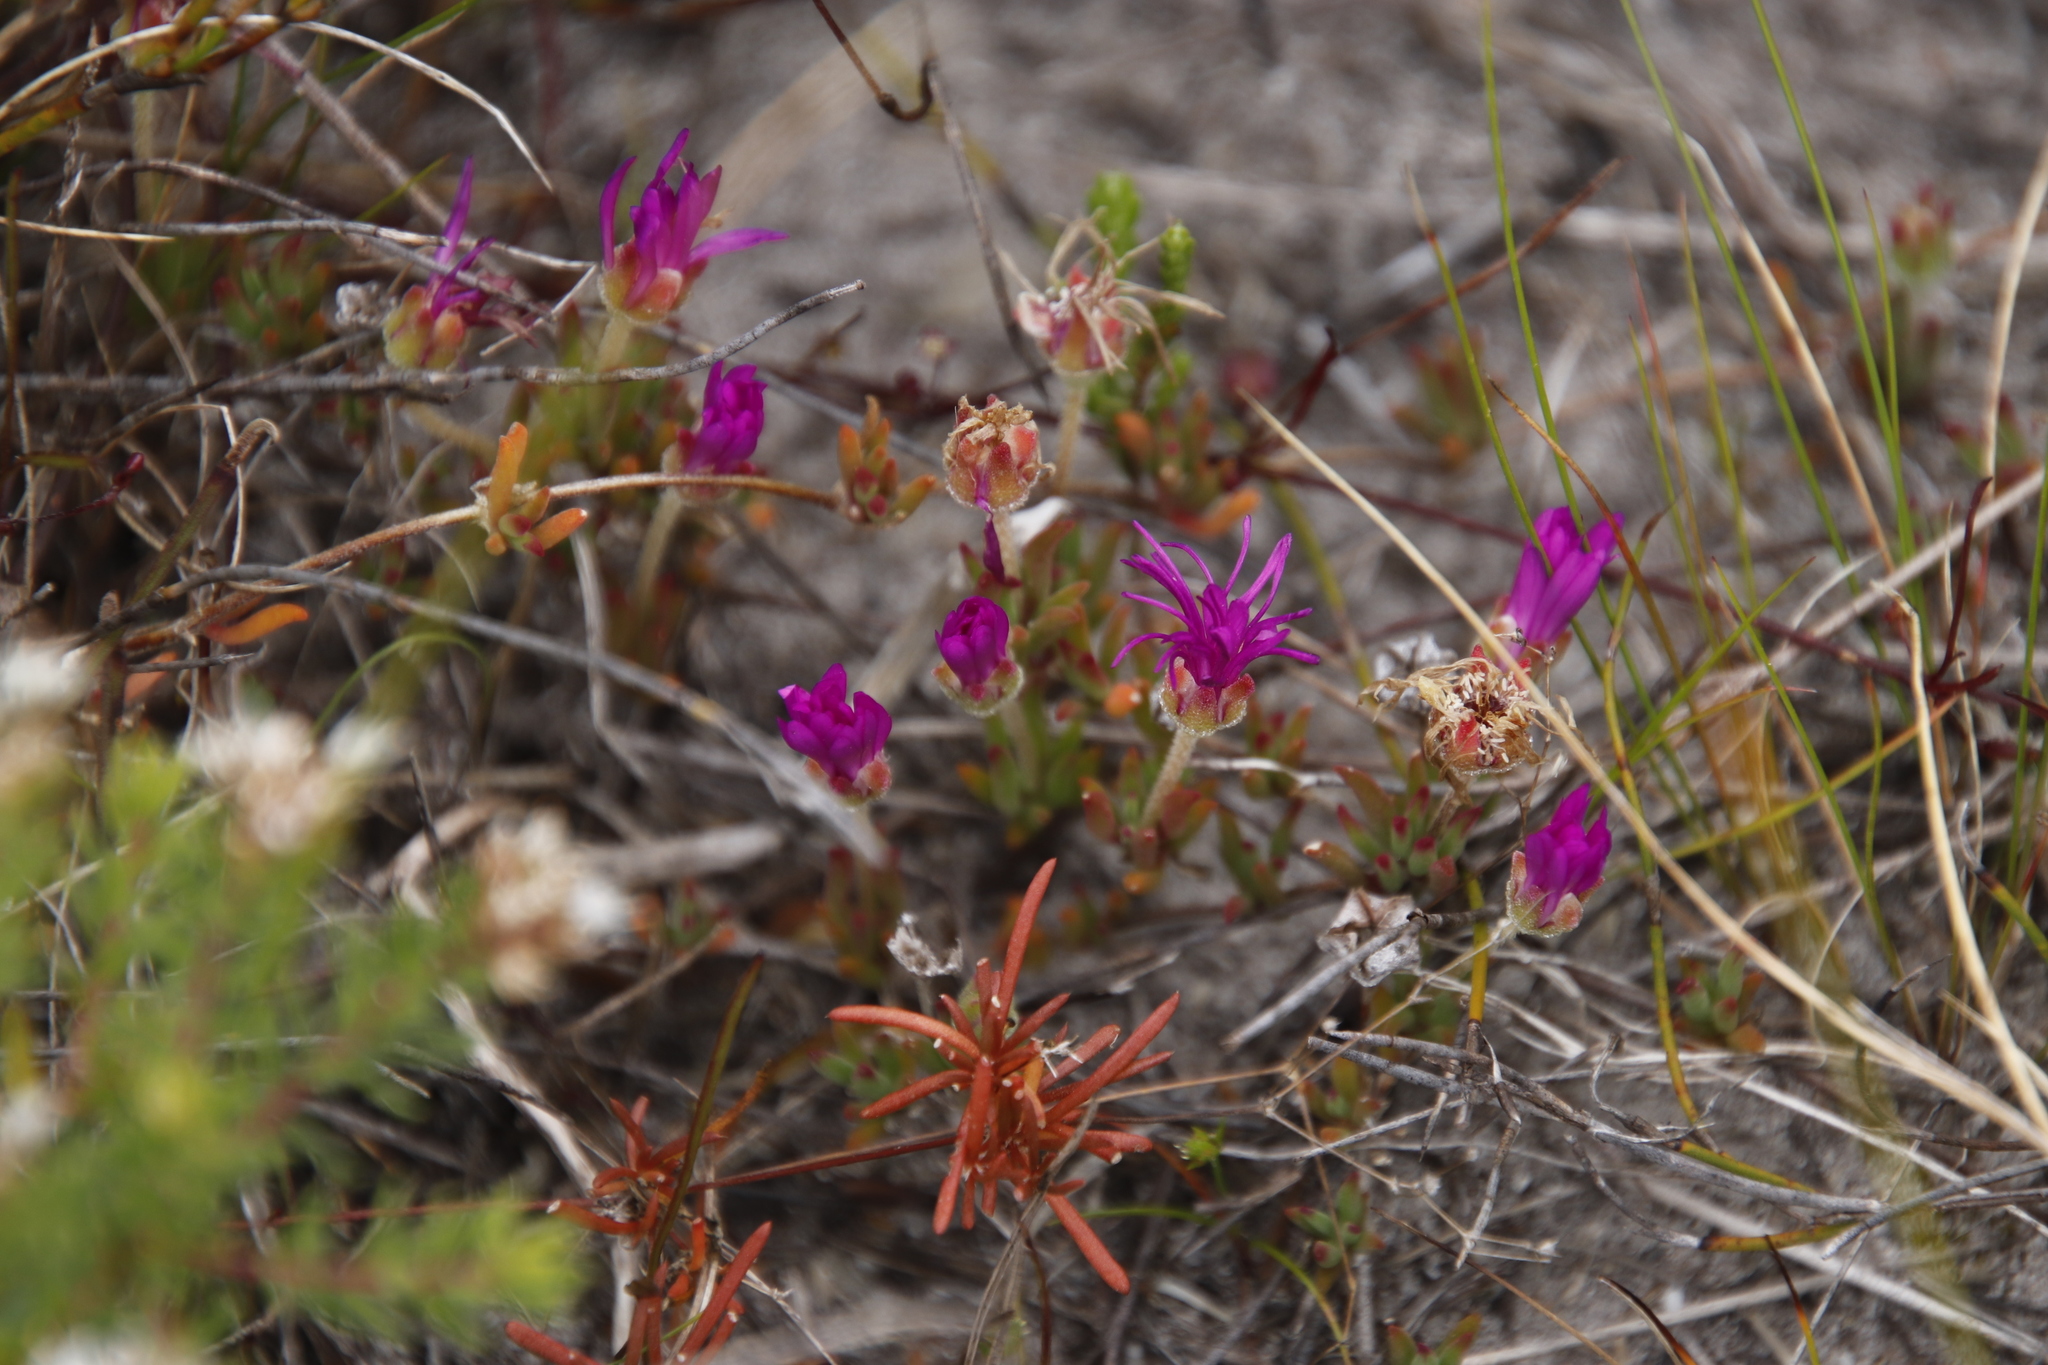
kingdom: Plantae
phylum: Tracheophyta
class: Magnoliopsida
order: Caryophyllales
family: Aizoaceae
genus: Drosanthemum
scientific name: Drosanthemum calcareum
